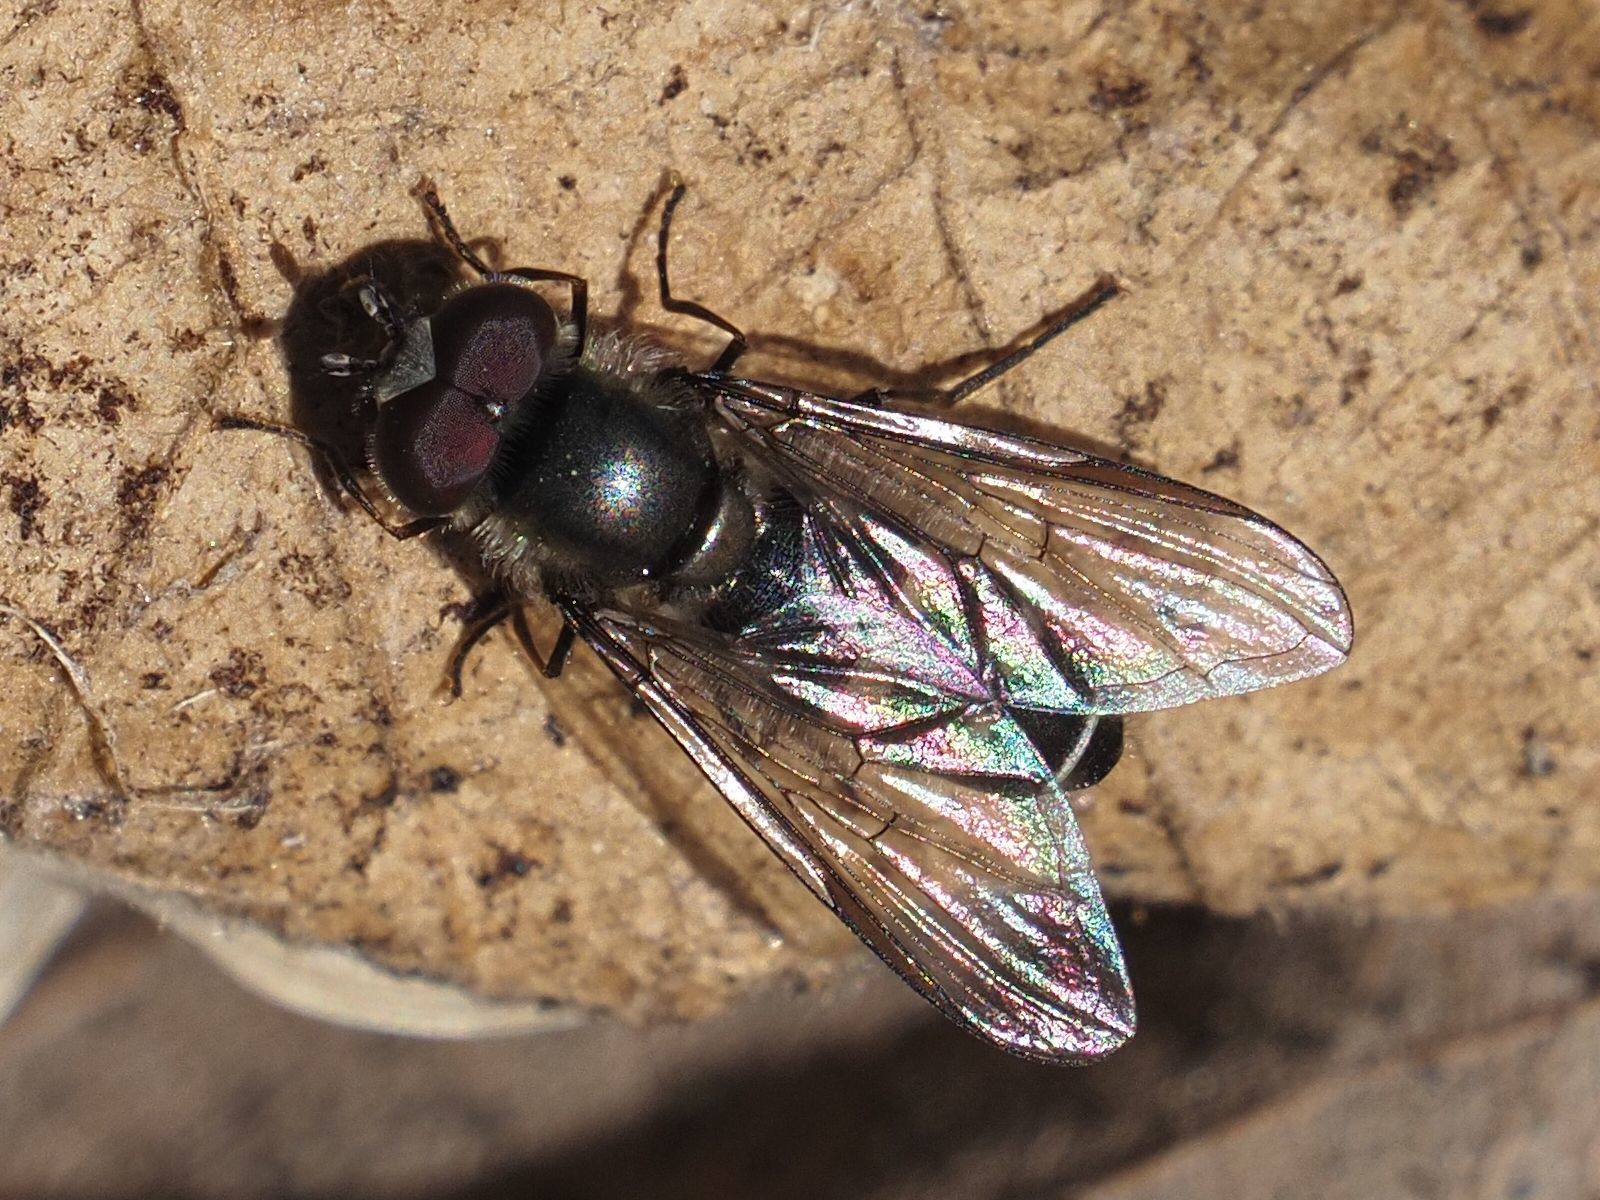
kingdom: Animalia
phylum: Arthropoda
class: Insecta
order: Diptera
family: Syrphidae
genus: Melangyna
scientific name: Melangyna quadrimaculata
